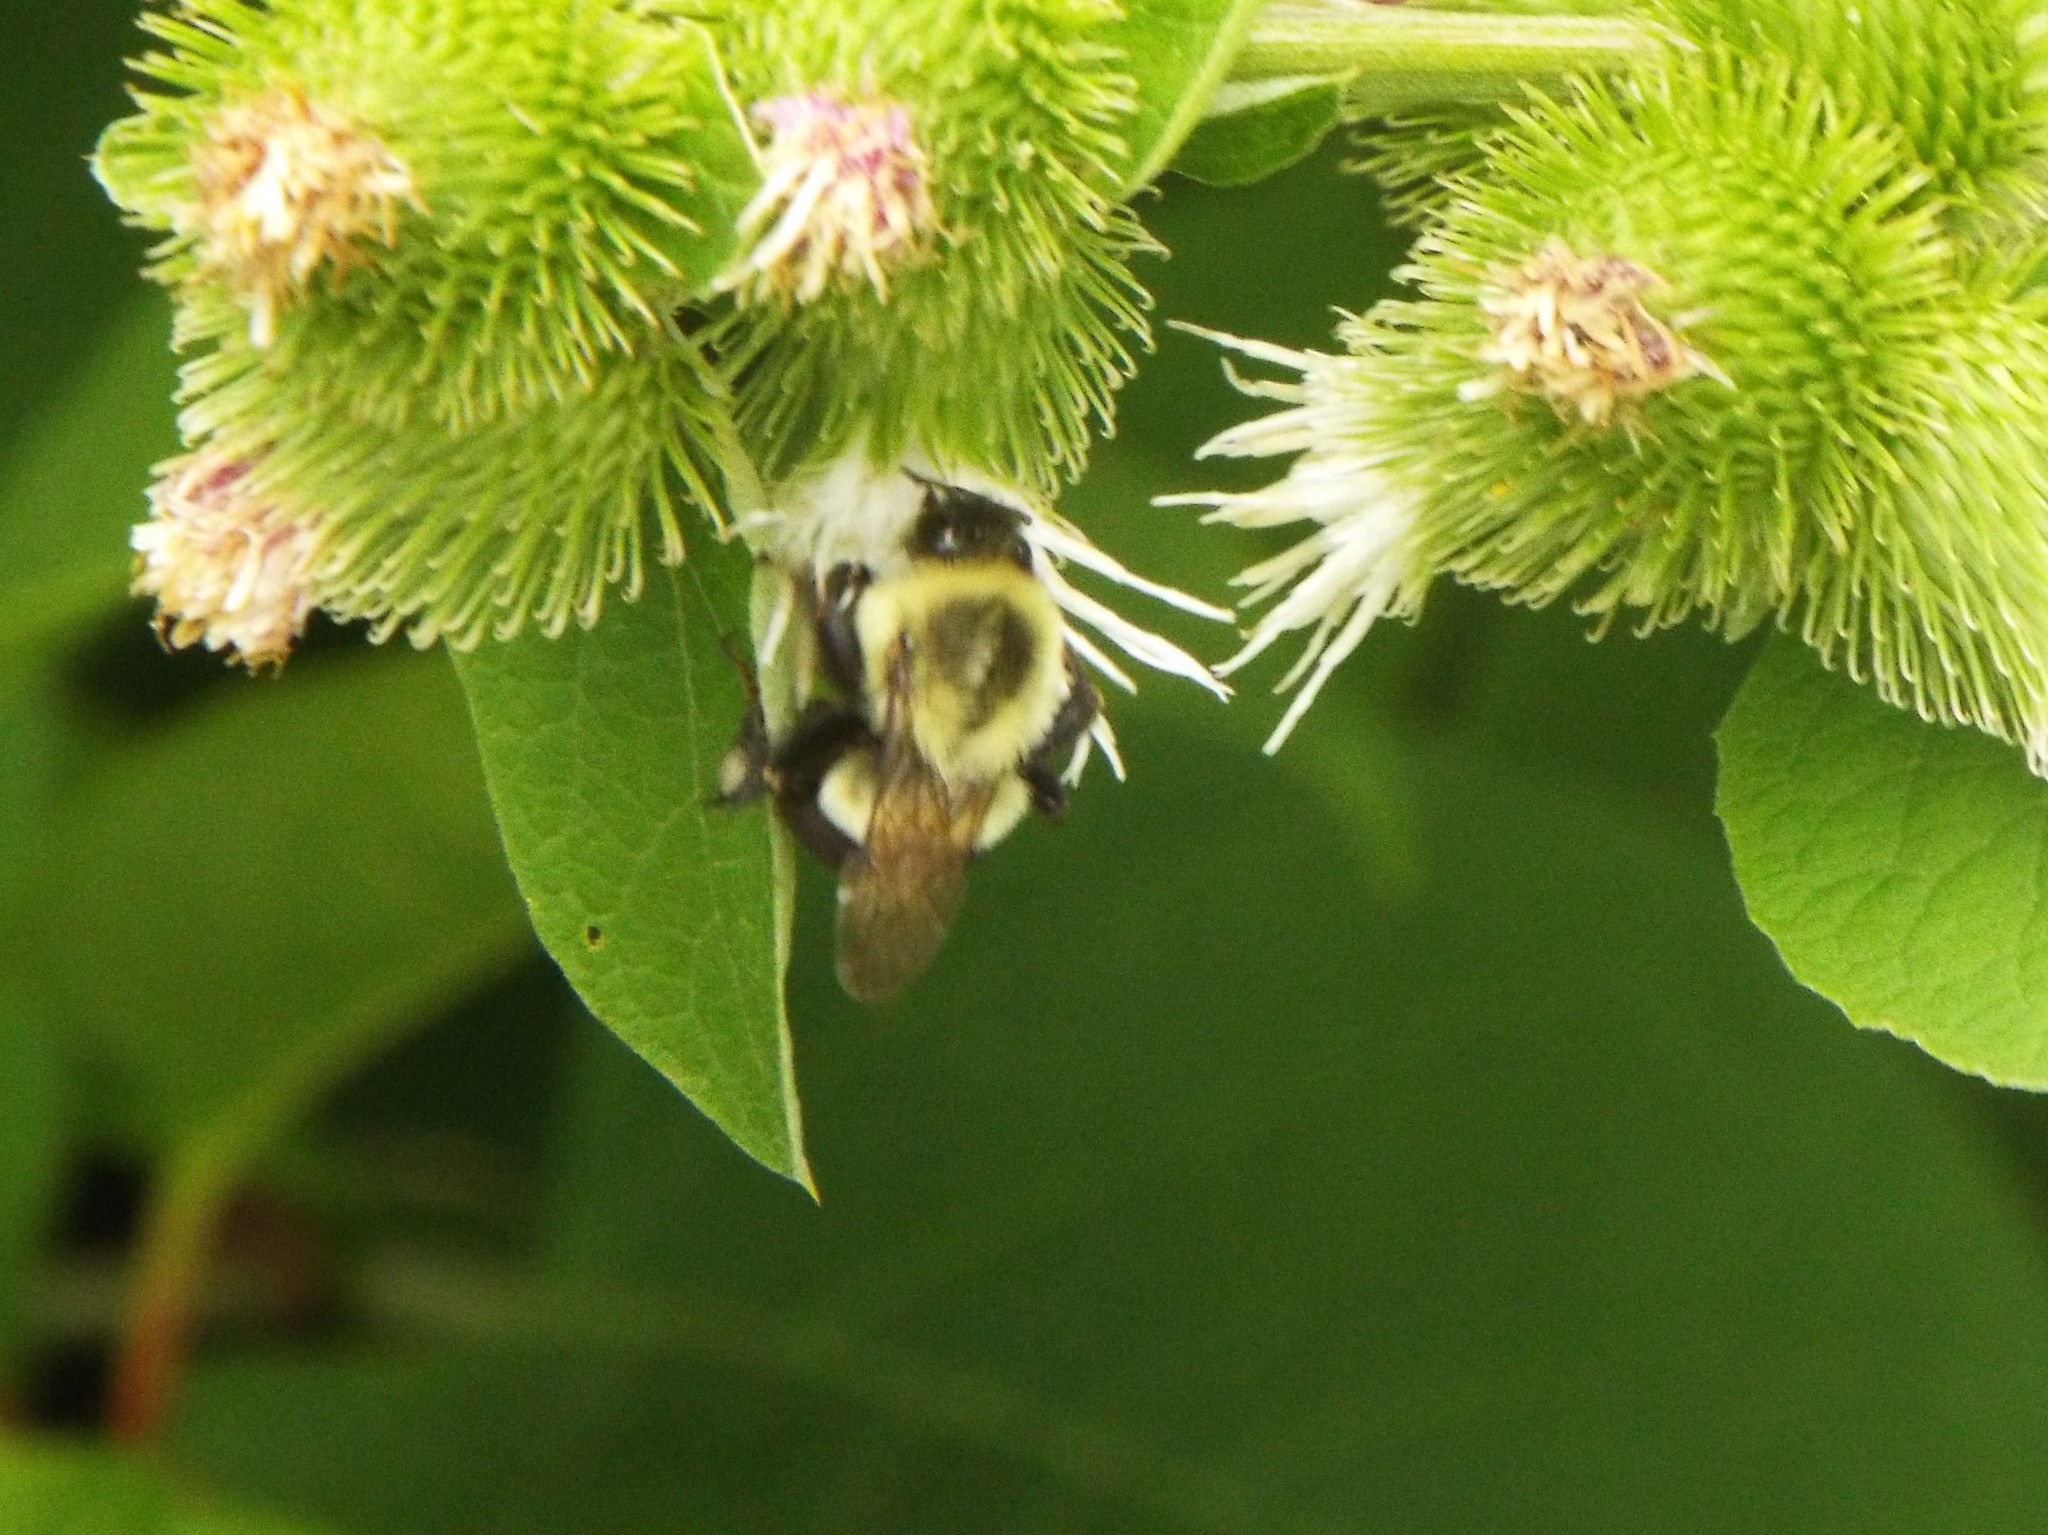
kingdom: Animalia
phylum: Arthropoda
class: Insecta
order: Hymenoptera
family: Apidae
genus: Bombus
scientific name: Bombus impatiens
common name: Common eastern bumble bee
